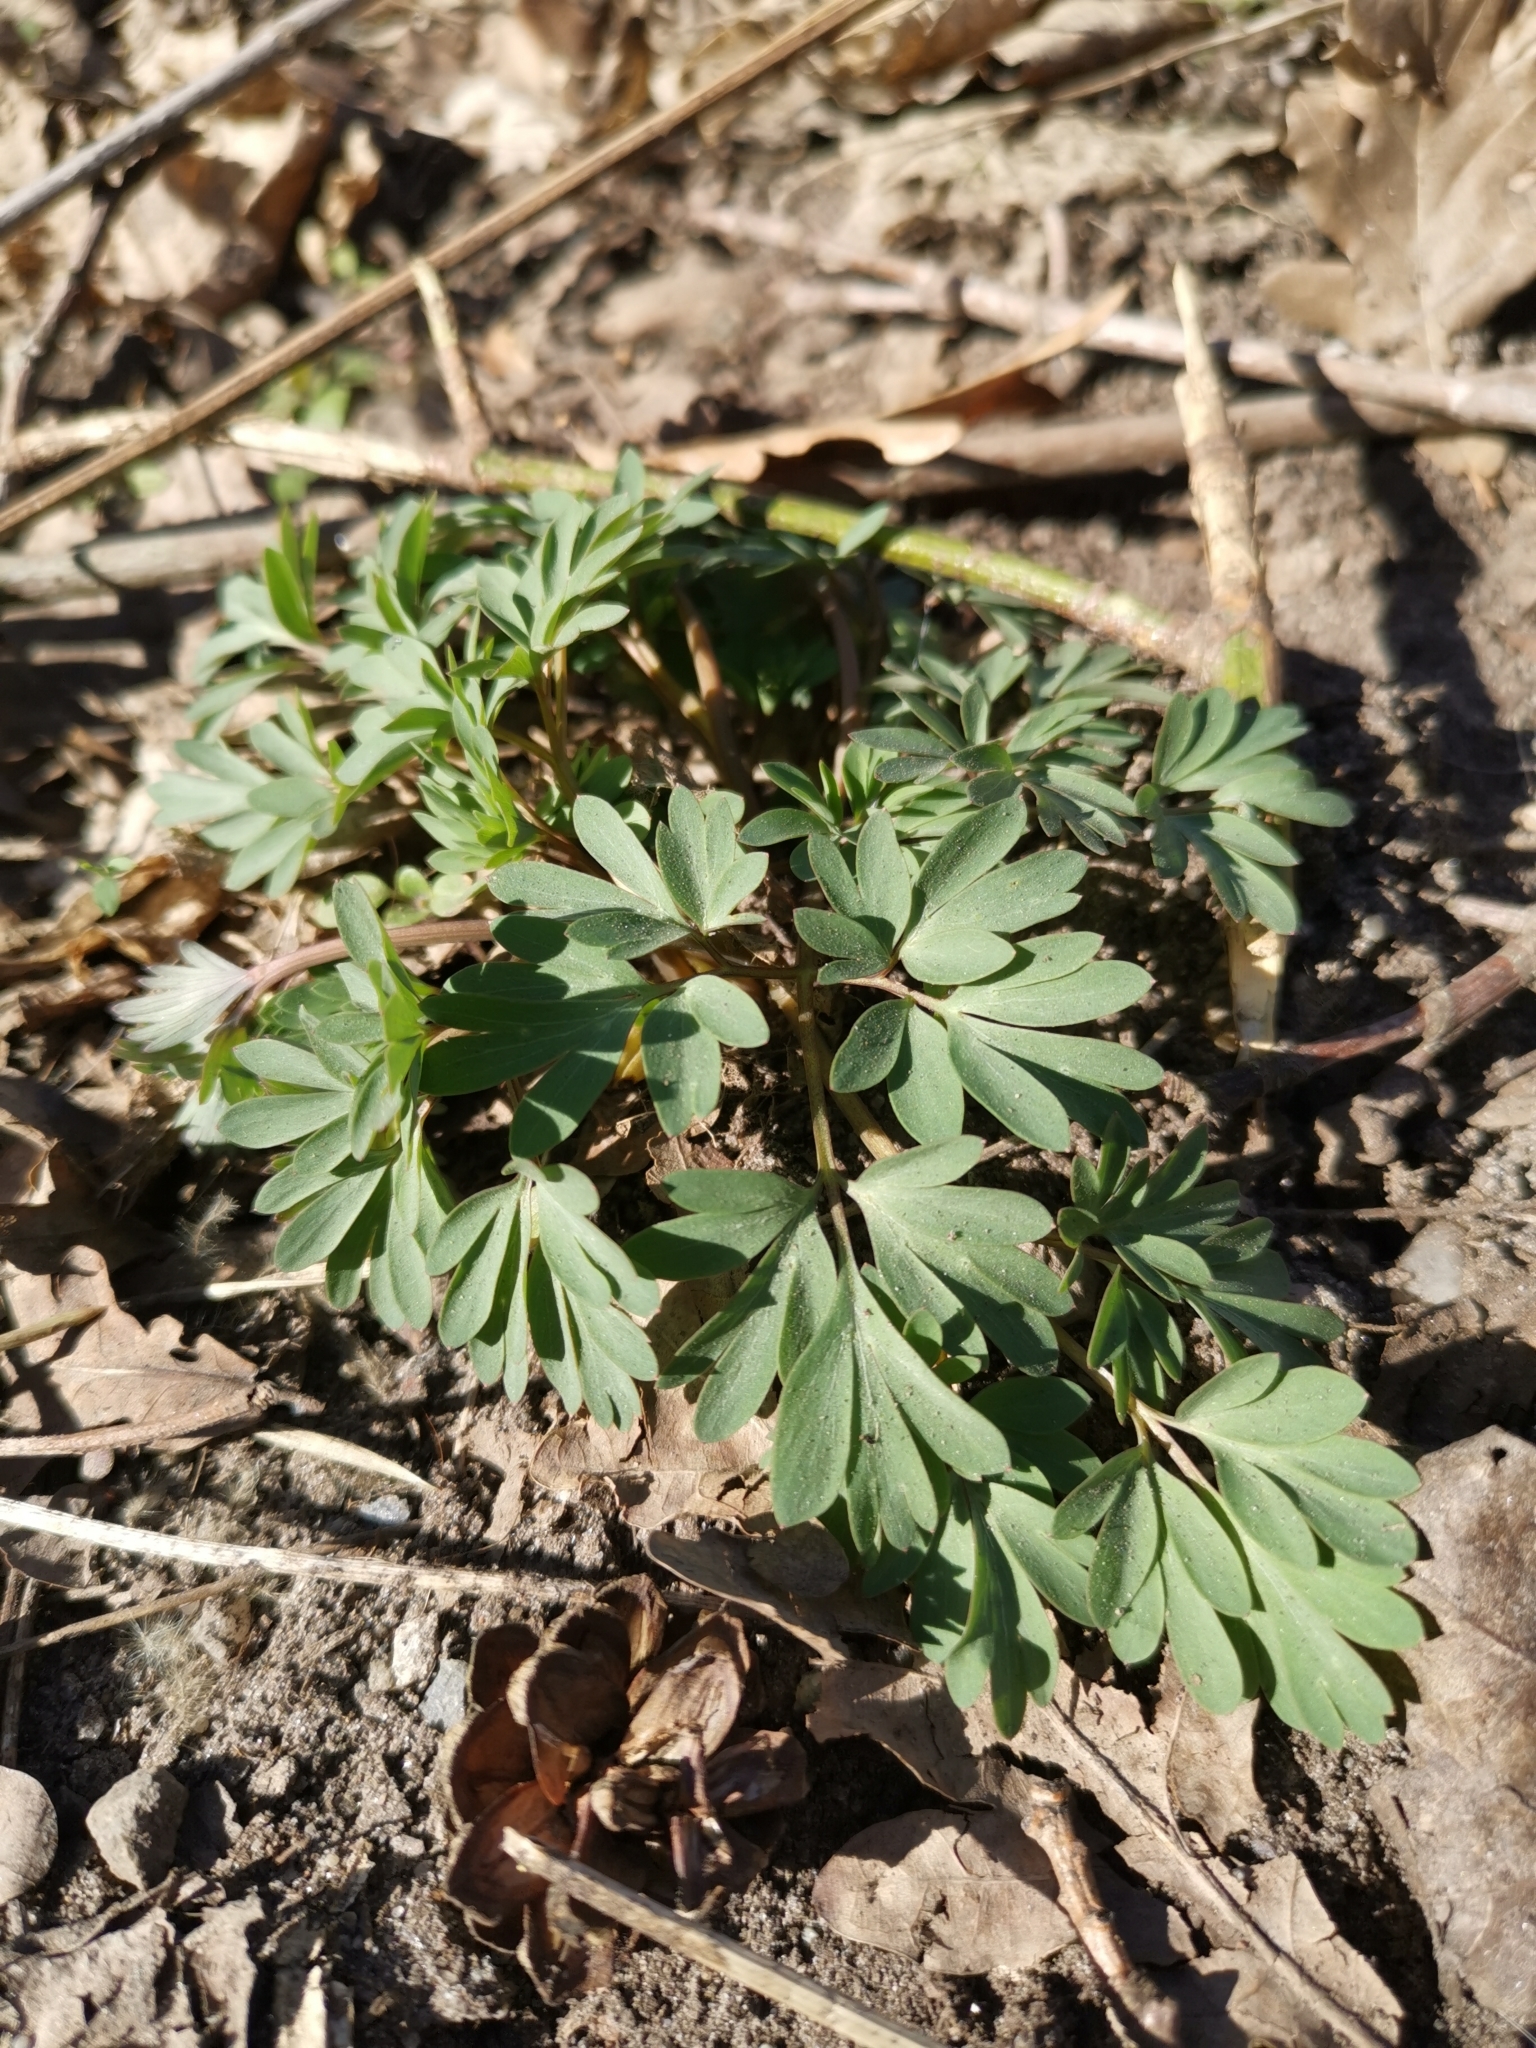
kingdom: Plantae
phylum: Tracheophyta
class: Magnoliopsida
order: Ranunculales
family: Papaveraceae
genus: Corydalis
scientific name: Corydalis solida
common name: Bird-in-a-bush
